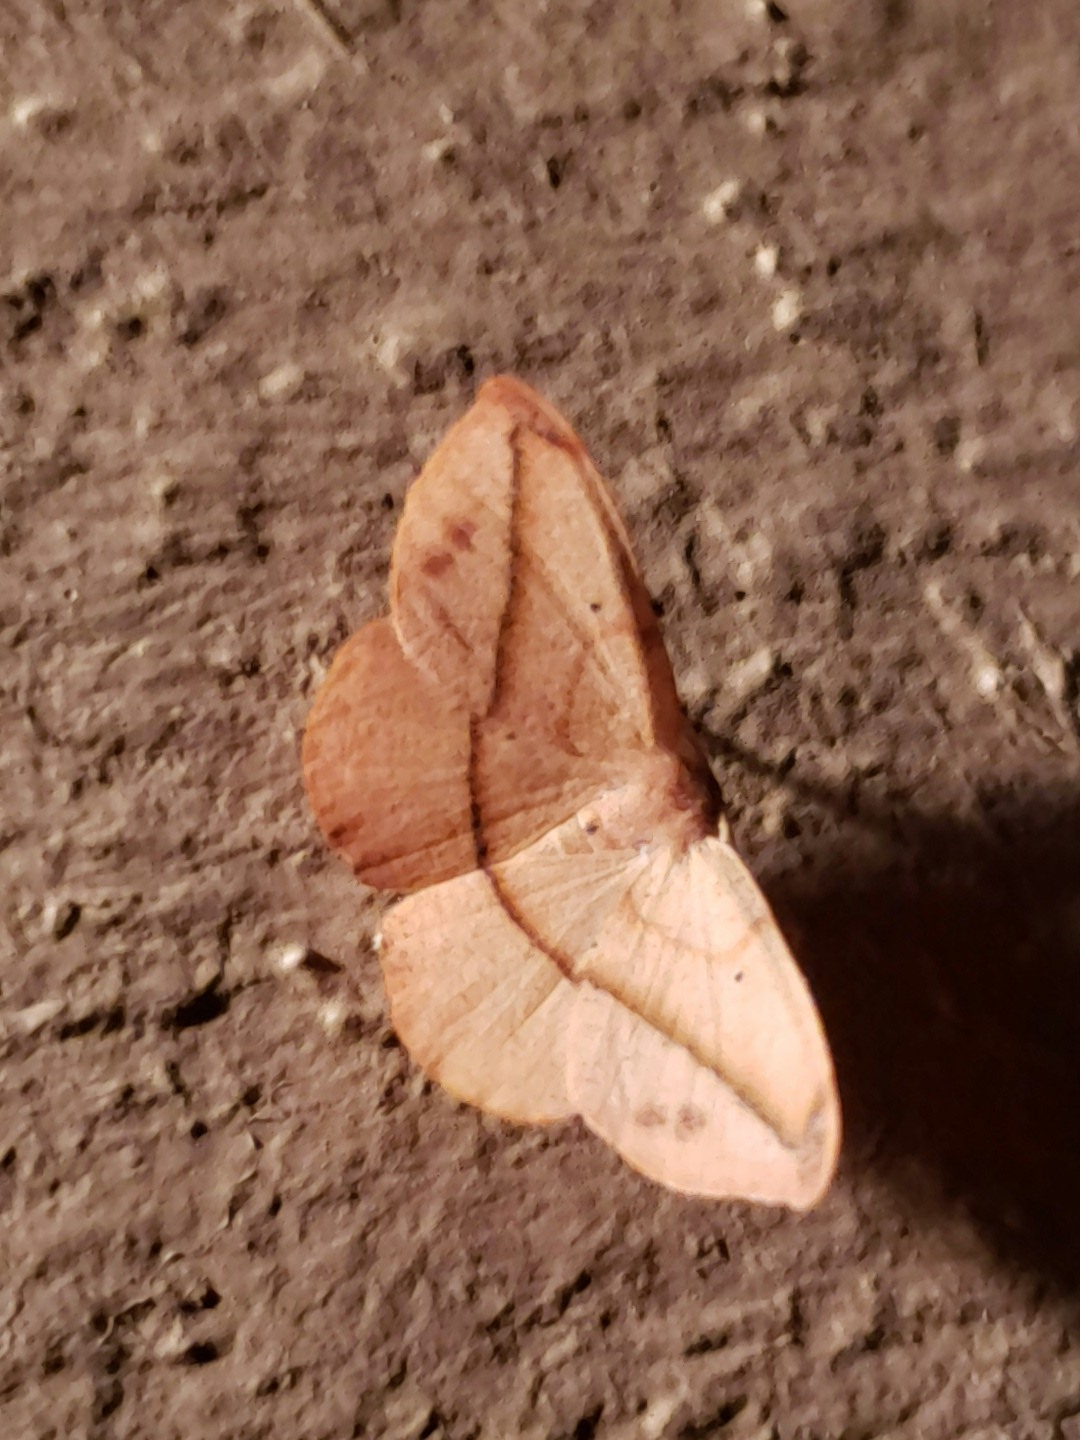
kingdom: Animalia
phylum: Arthropoda
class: Insecta
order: Lepidoptera
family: Geometridae
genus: Patalene
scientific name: Patalene olyzonaria
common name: Juniper geometer moth
